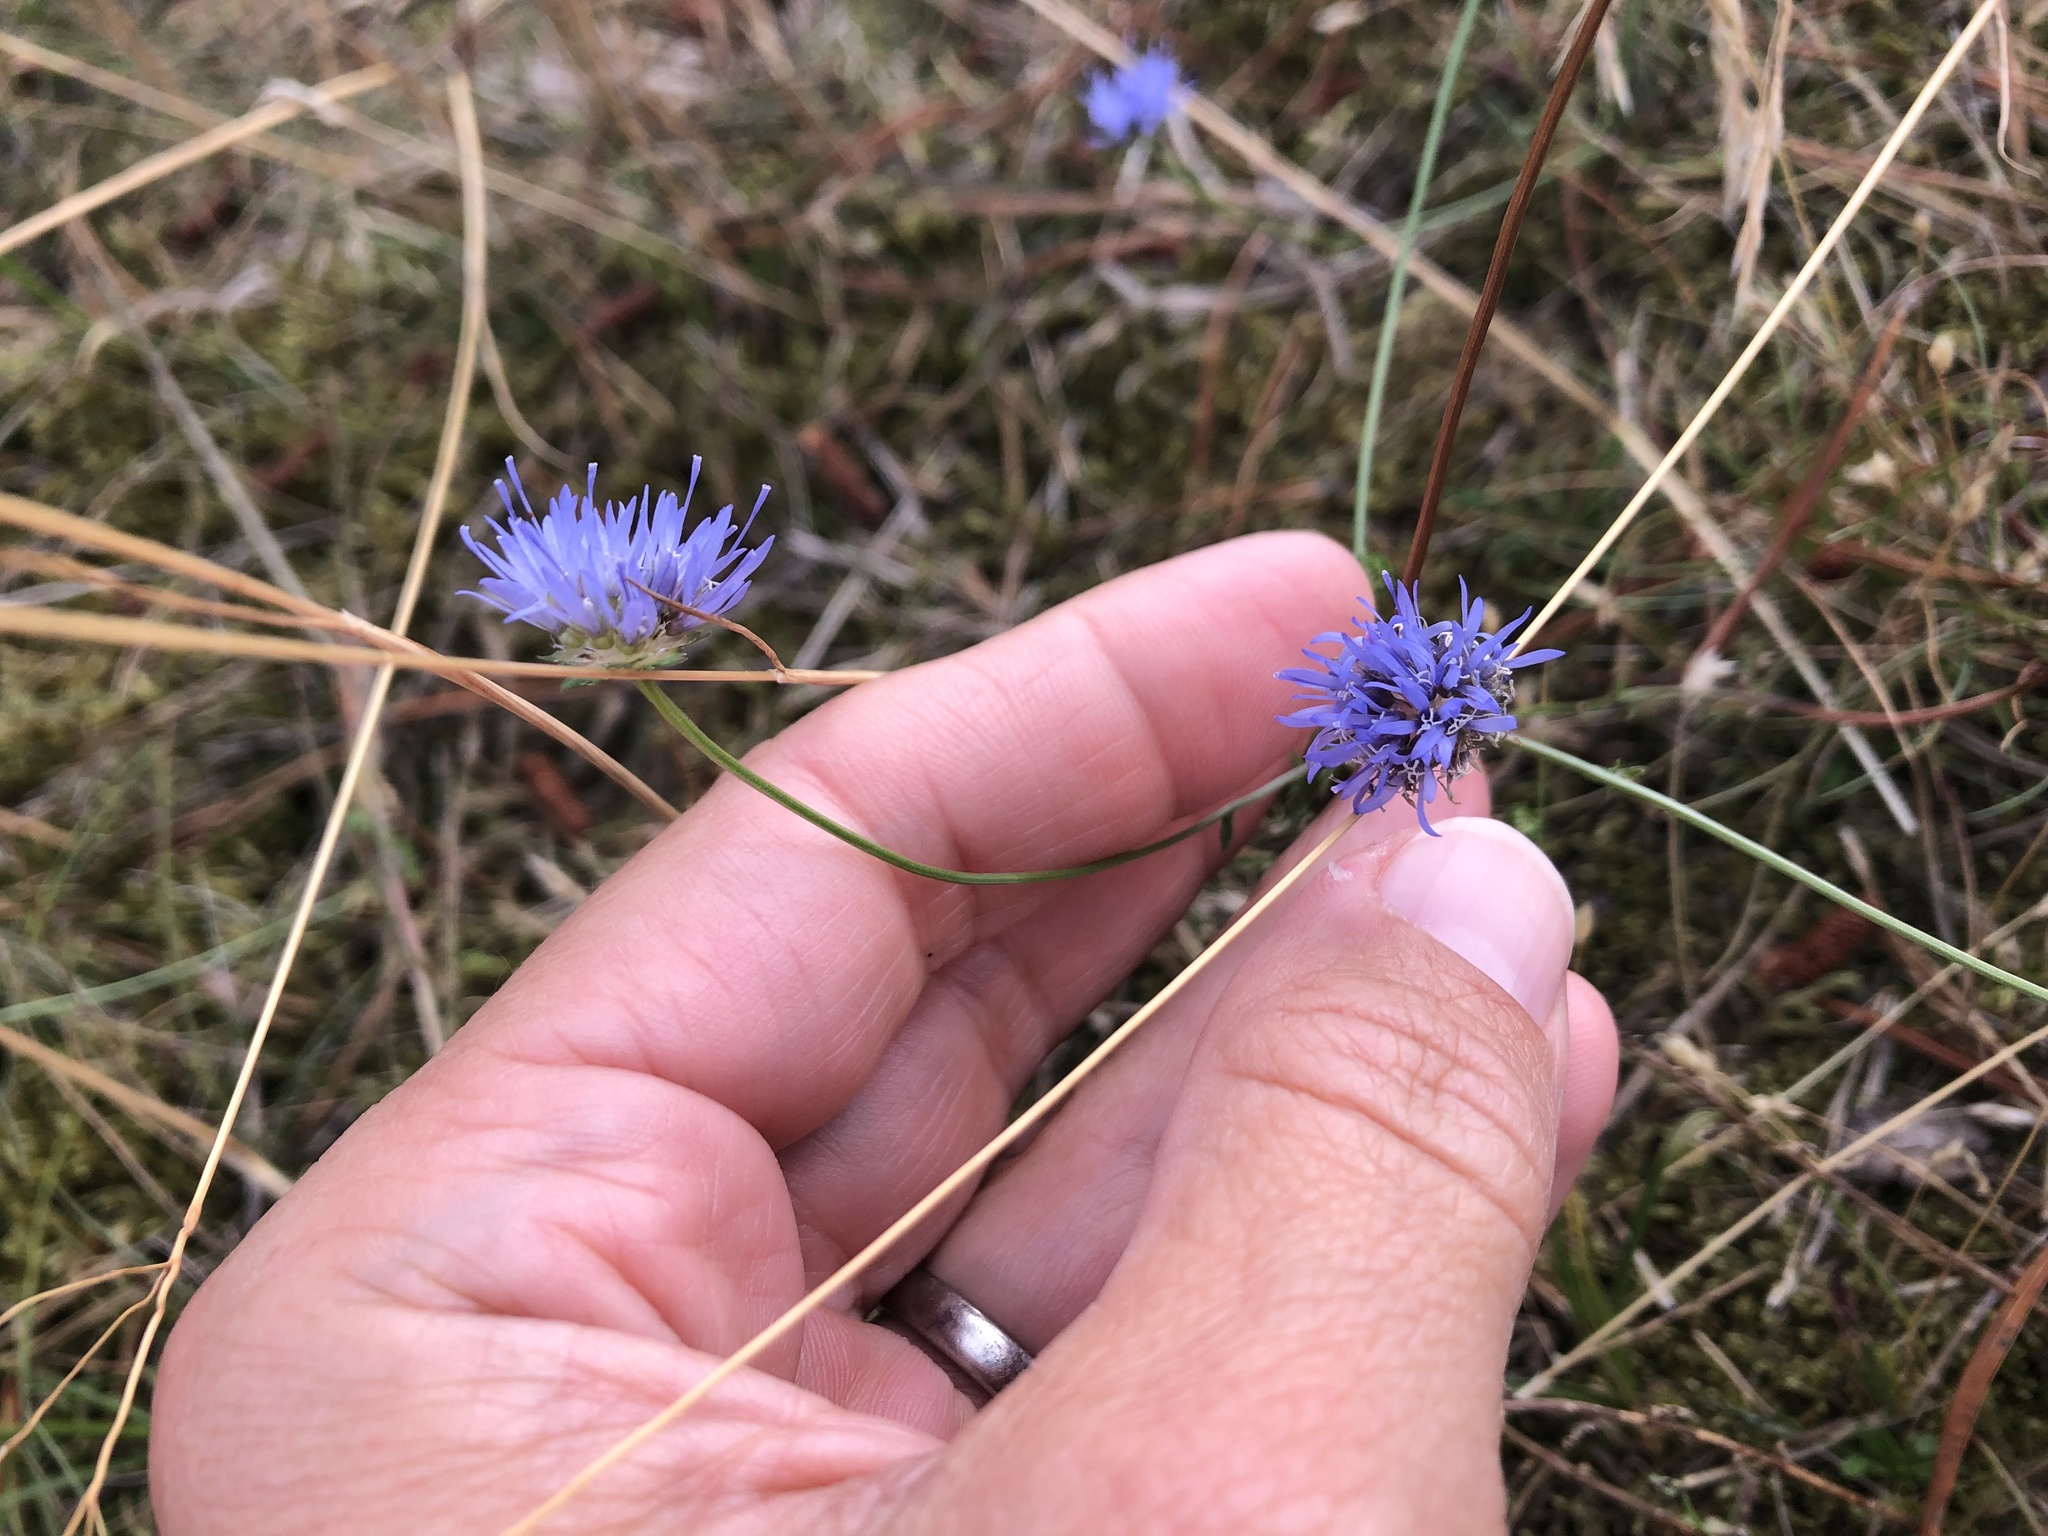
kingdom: Plantae
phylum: Tracheophyta
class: Magnoliopsida
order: Asterales
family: Campanulaceae
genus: Jasione
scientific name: Jasione montana
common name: Sheep's-bit
